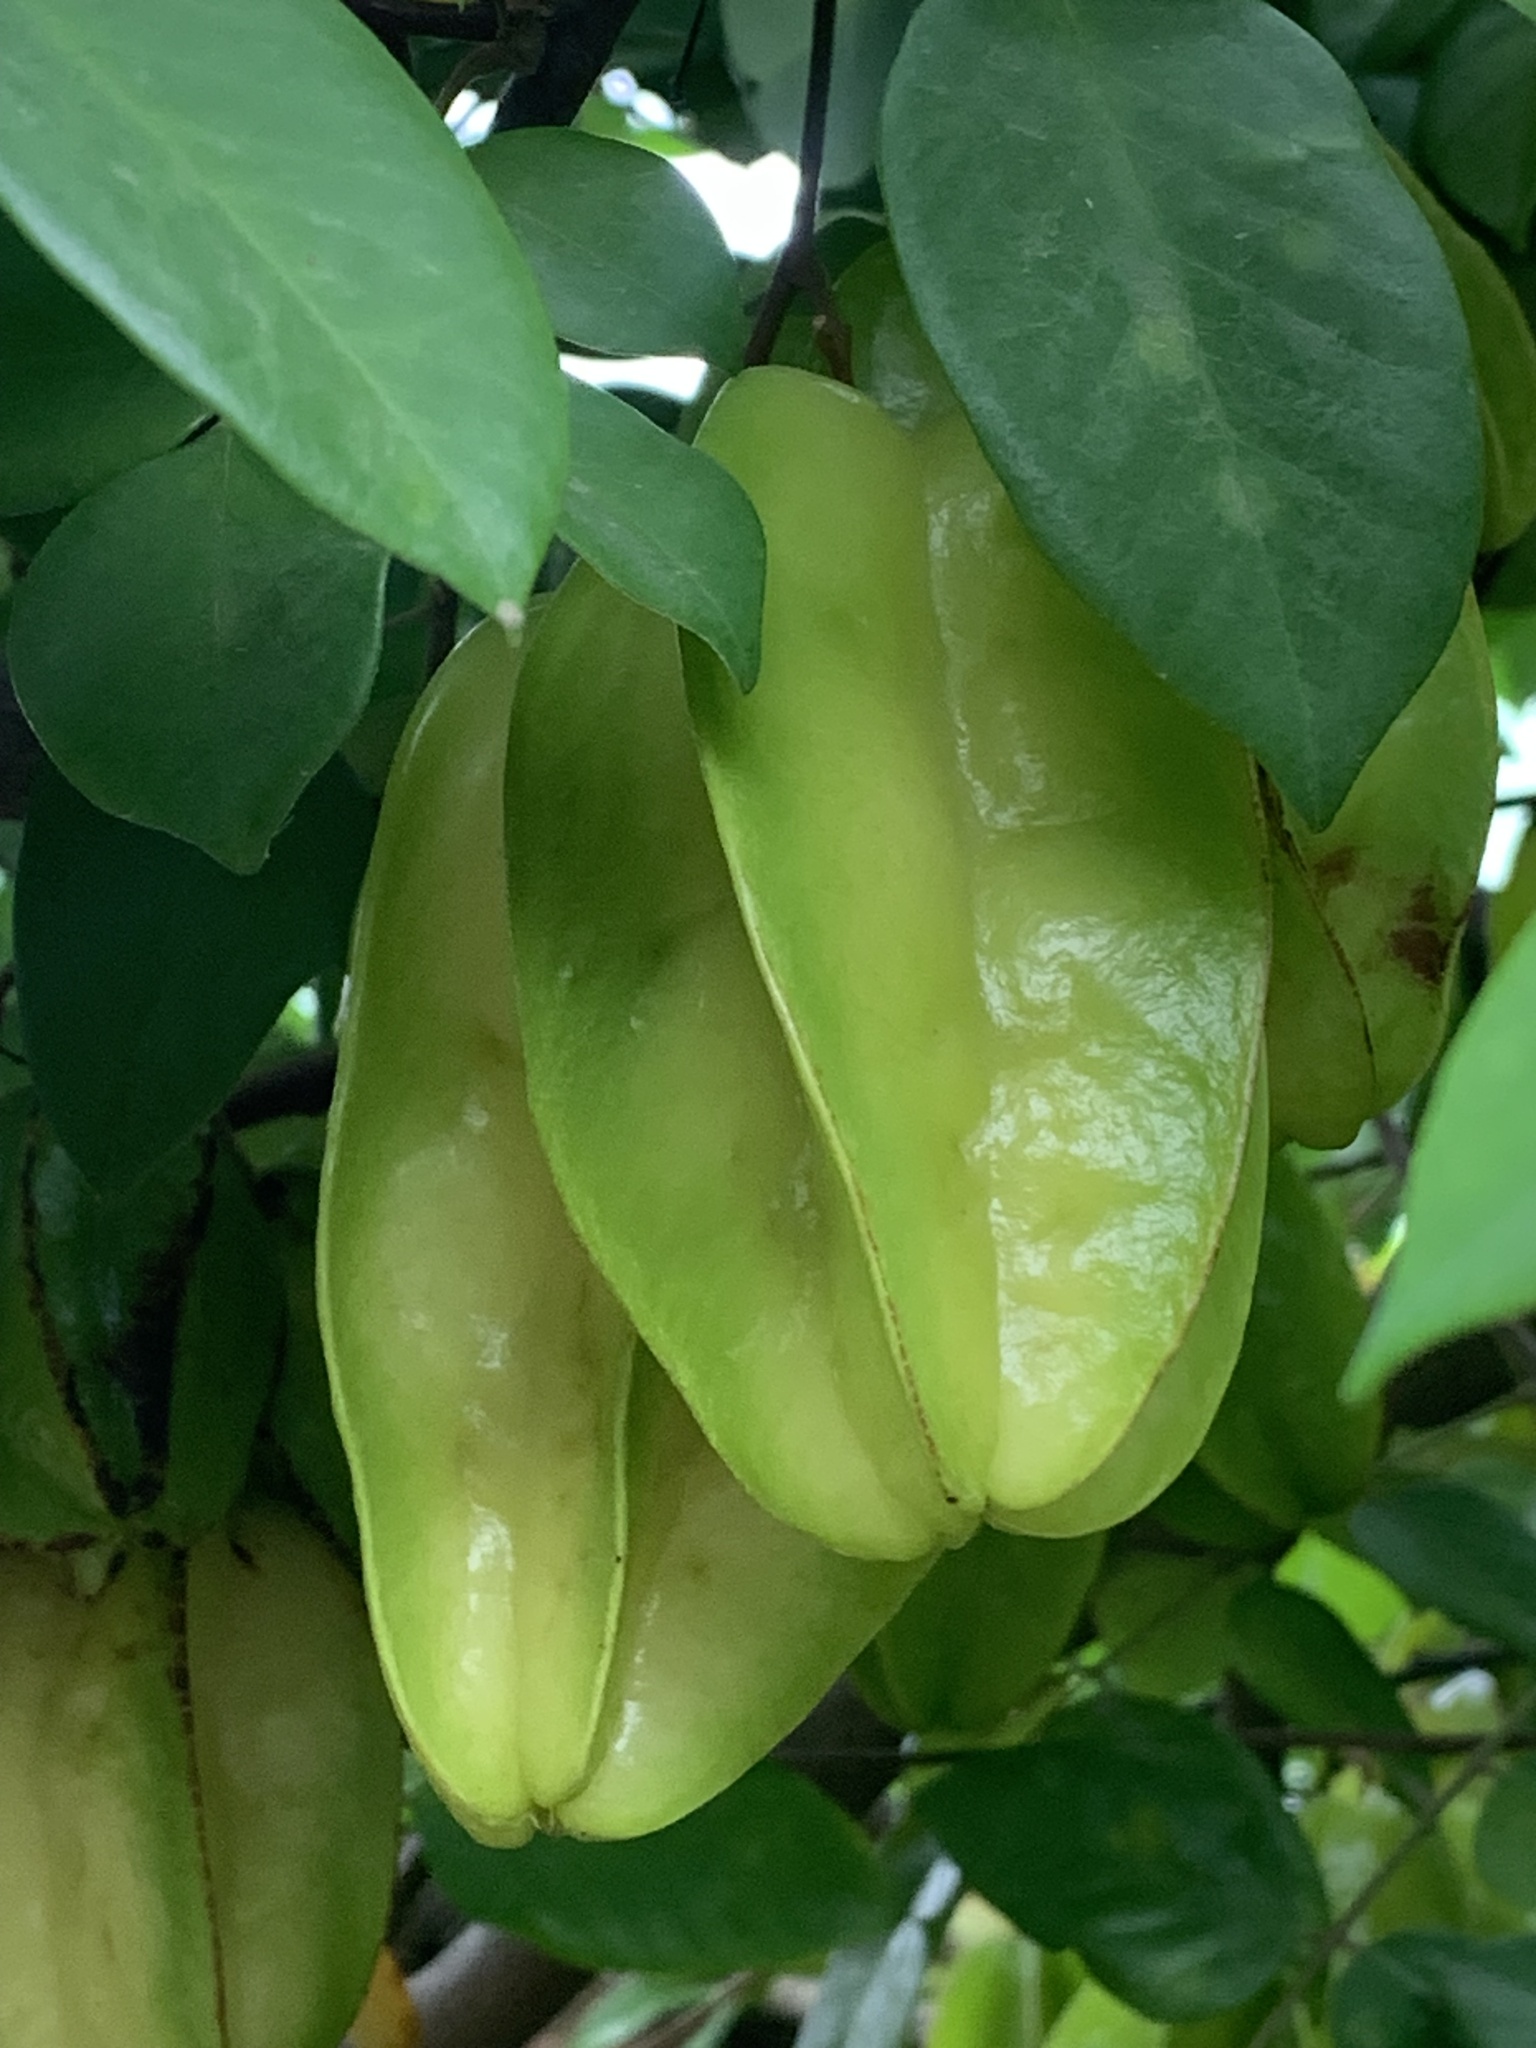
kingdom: Plantae
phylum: Tracheophyta
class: Magnoliopsida
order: Oxalidales
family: Oxalidaceae
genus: Averrhoa
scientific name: Averrhoa carambola
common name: Blimbing
